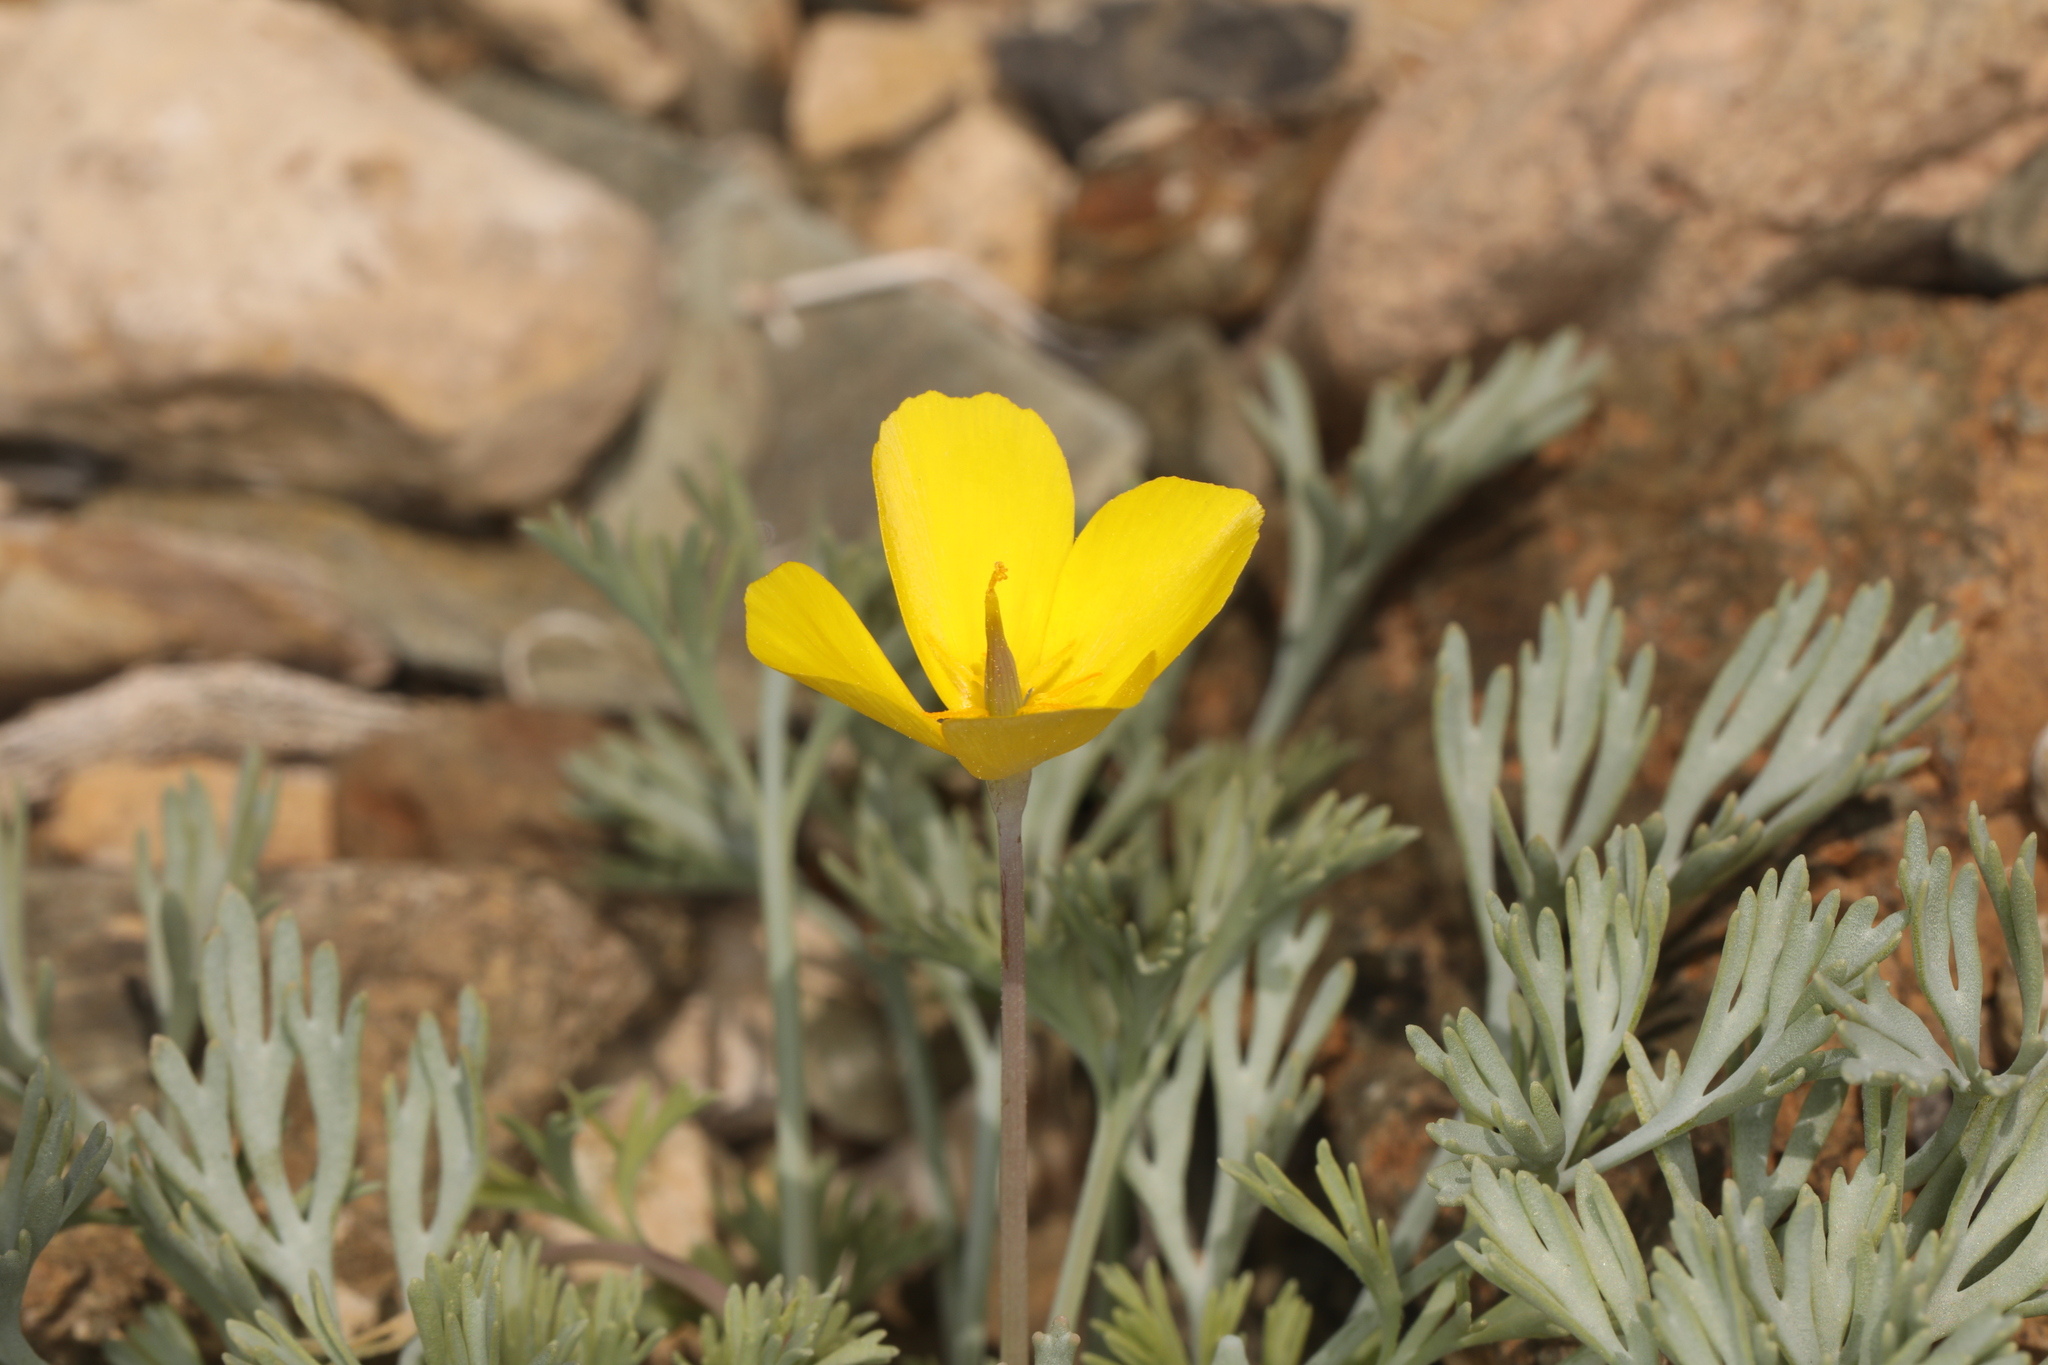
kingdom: Plantae
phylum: Tracheophyta
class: Magnoliopsida
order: Ranunculales
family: Papaveraceae
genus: Eschscholzia
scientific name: Eschscholzia minutiflora
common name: Small-flower california-poppy
